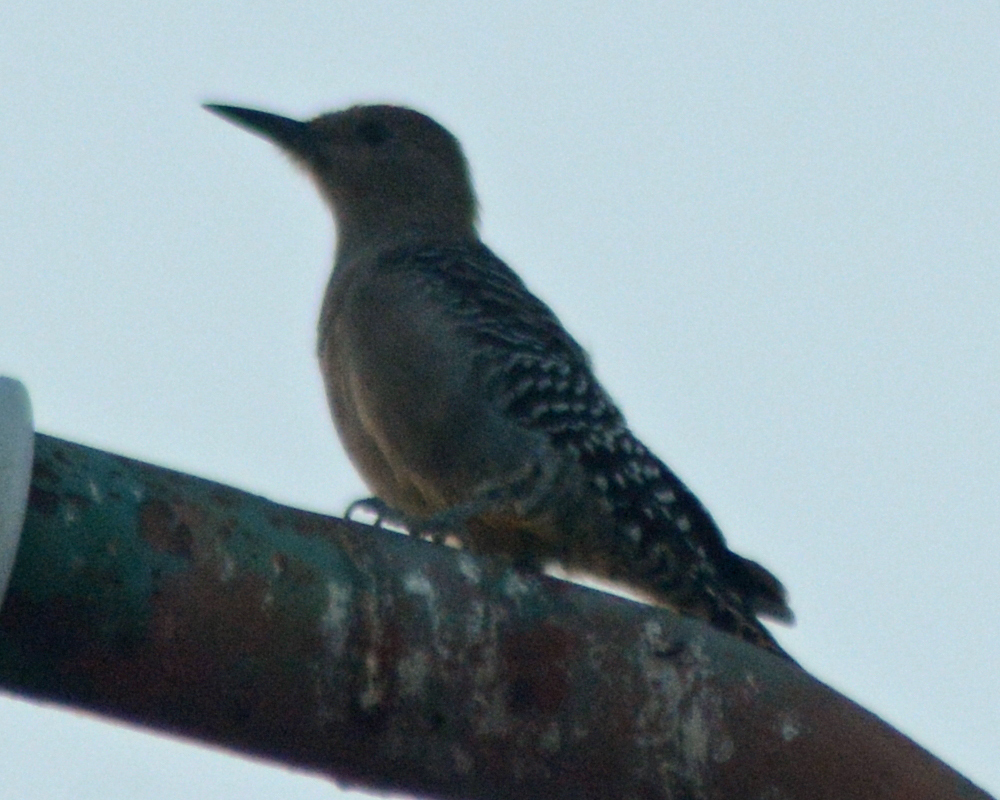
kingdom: Animalia
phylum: Chordata
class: Aves
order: Piciformes
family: Picidae
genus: Melanerpes
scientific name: Melanerpes uropygialis
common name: Gila woodpecker
